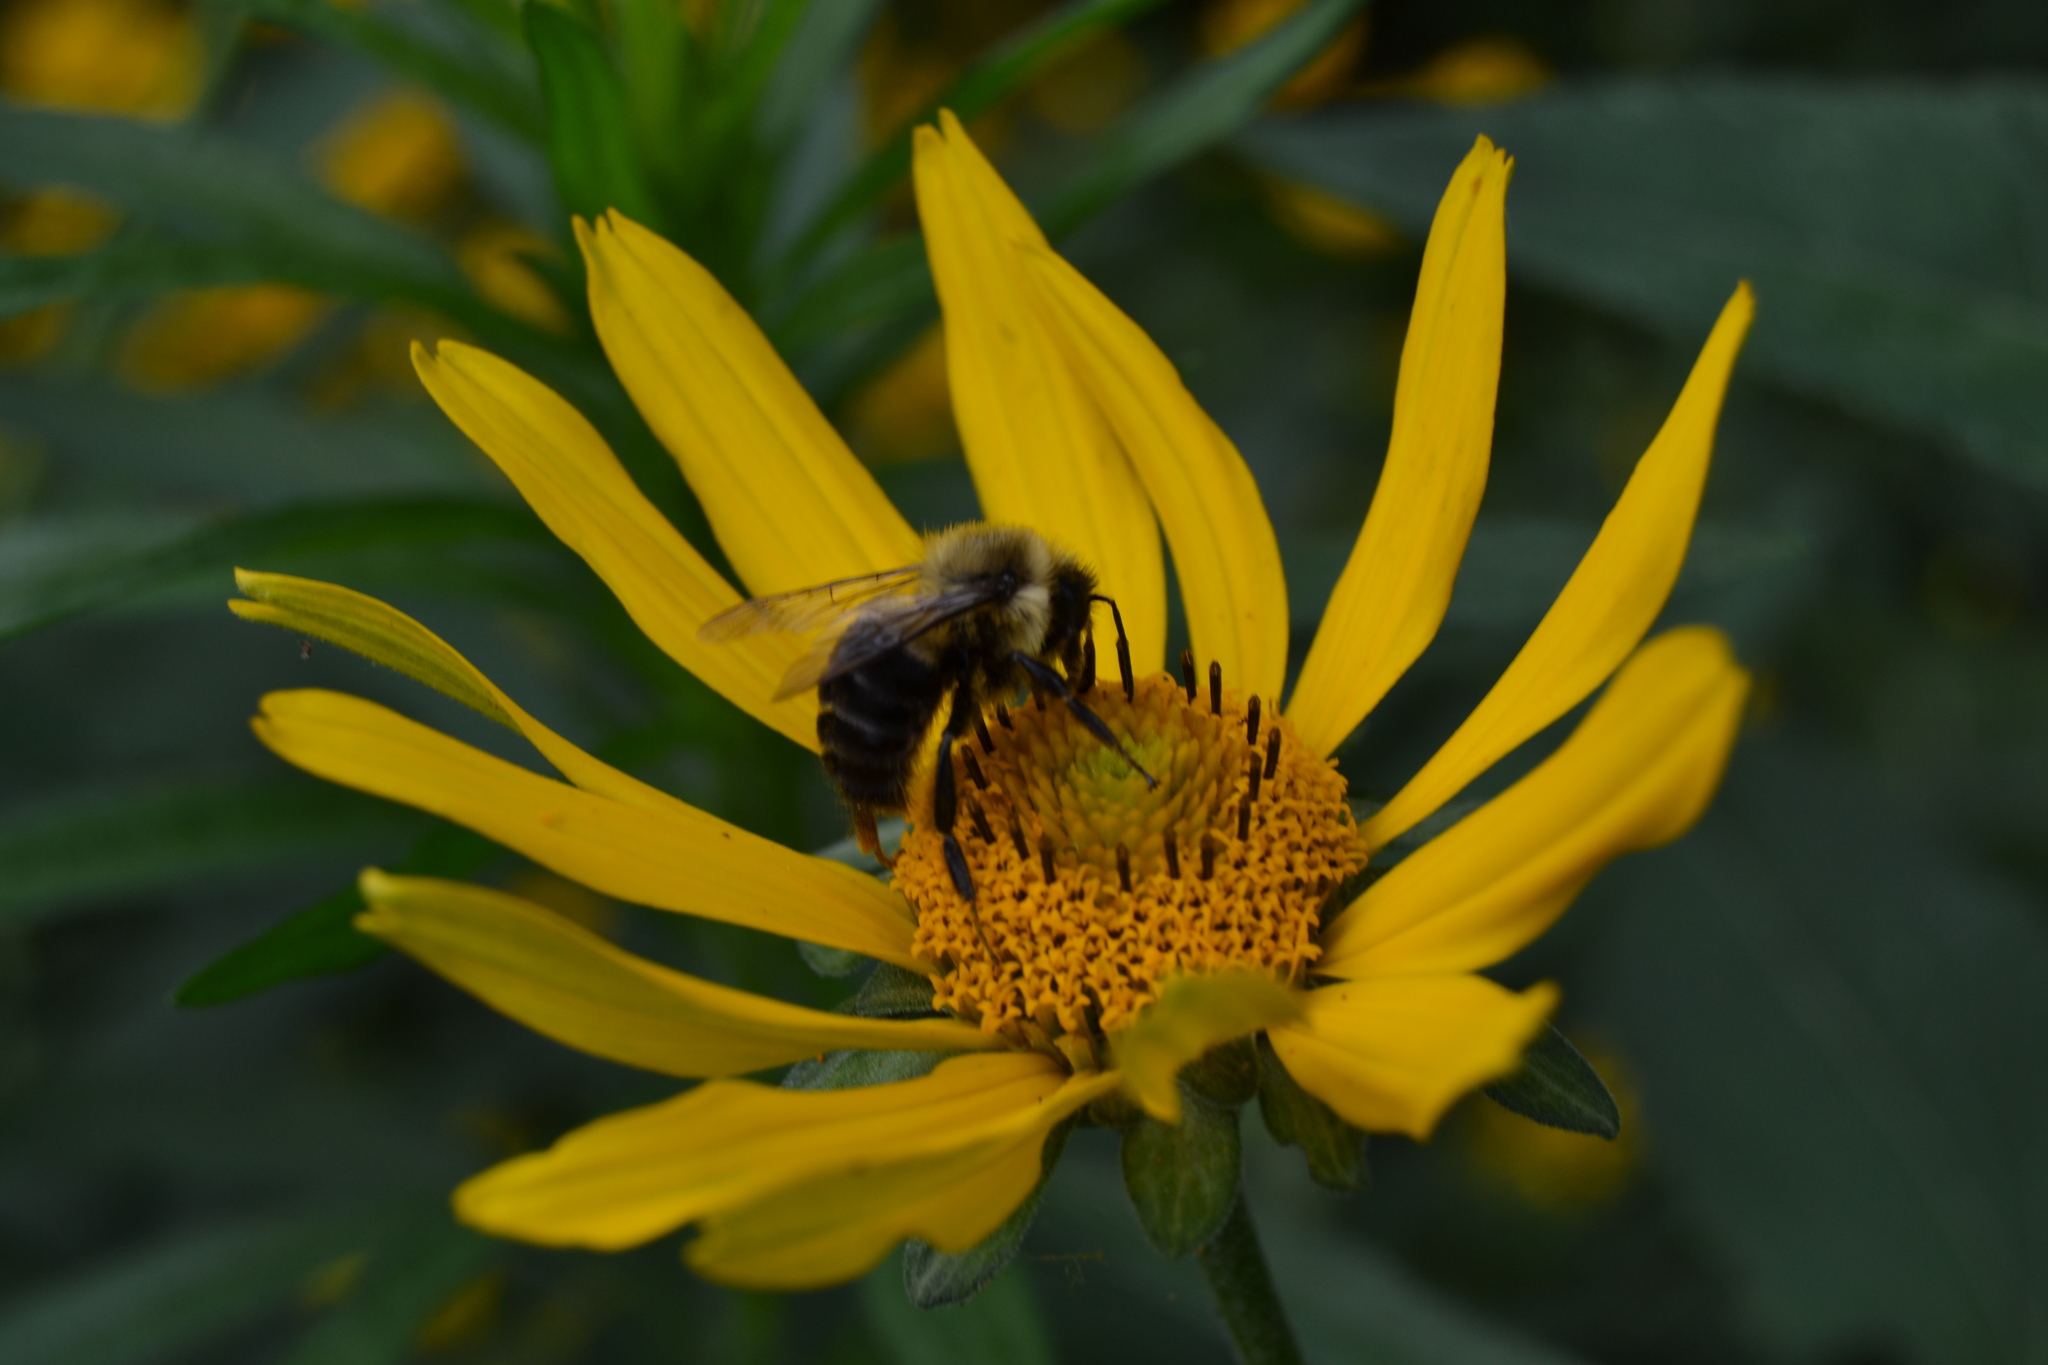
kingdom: Animalia
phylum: Arthropoda
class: Insecta
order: Hymenoptera
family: Apidae
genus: Bombus
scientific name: Bombus impatiens
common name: Common eastern bumble bee
